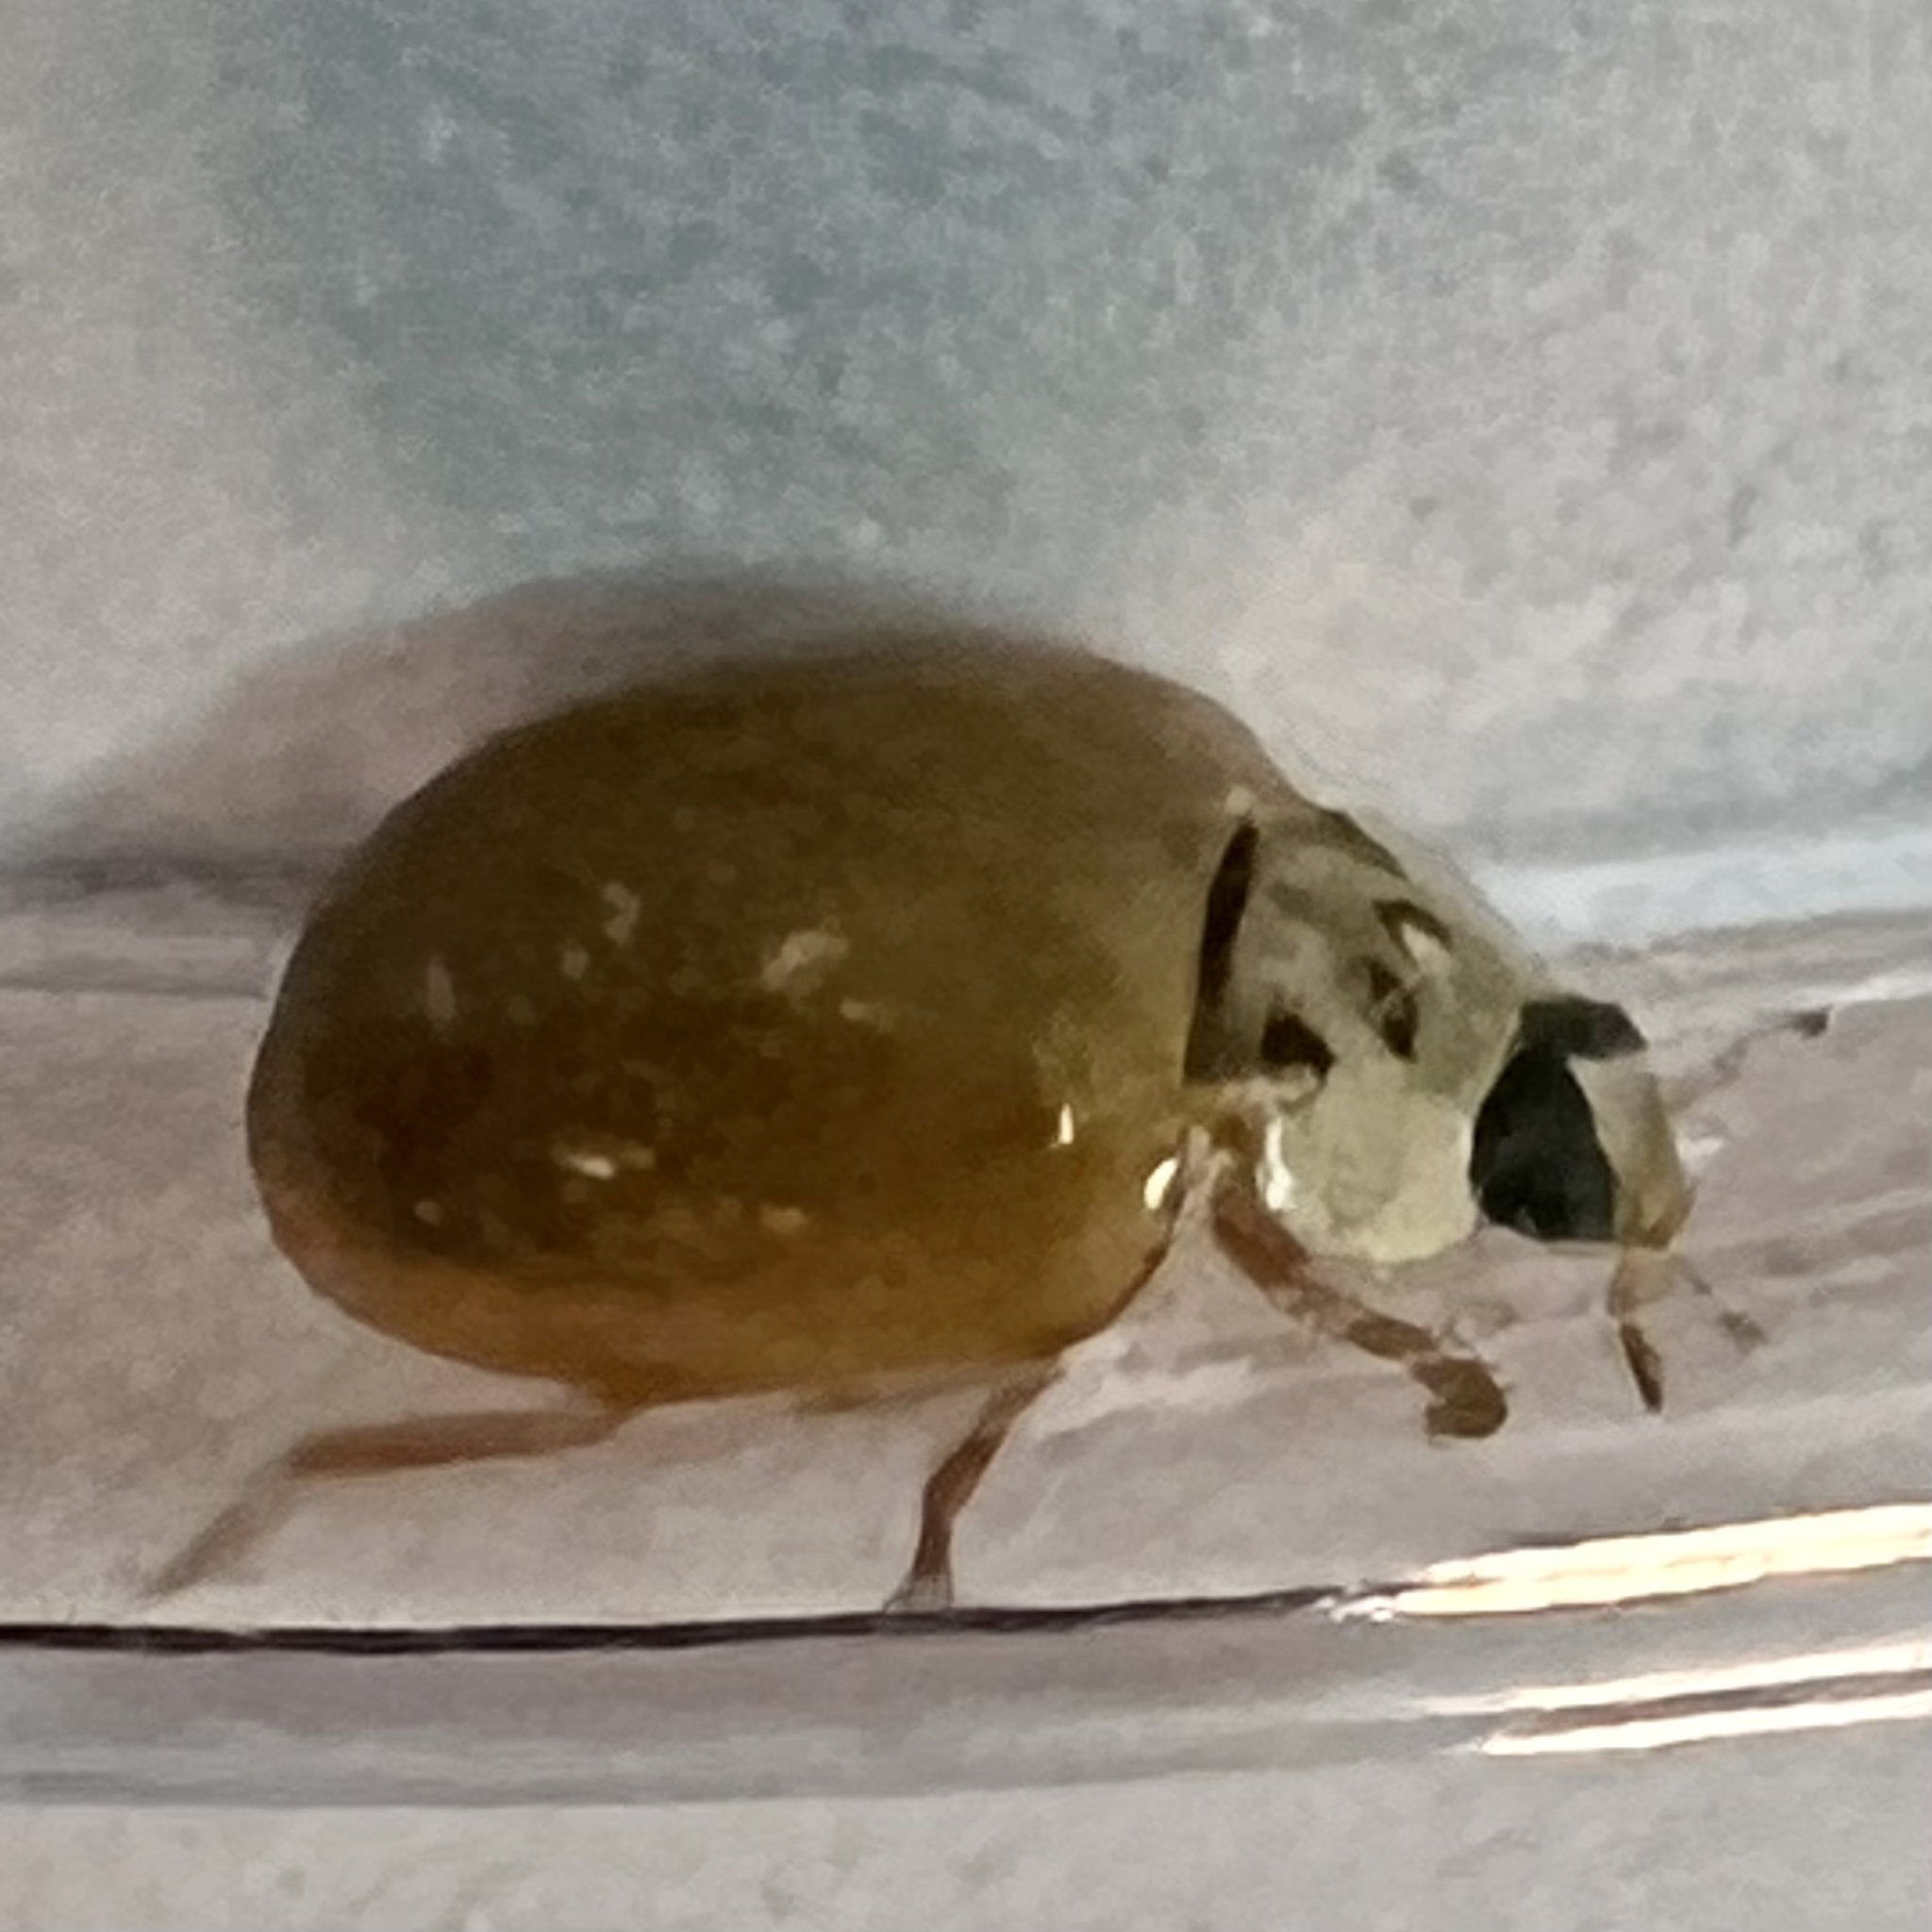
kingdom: Animalia
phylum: Arthropoda
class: Insecta
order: Coleoptera
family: Coccinellidae
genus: Harmonia
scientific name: Harmonia axyridis
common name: Harlequin ladybird
